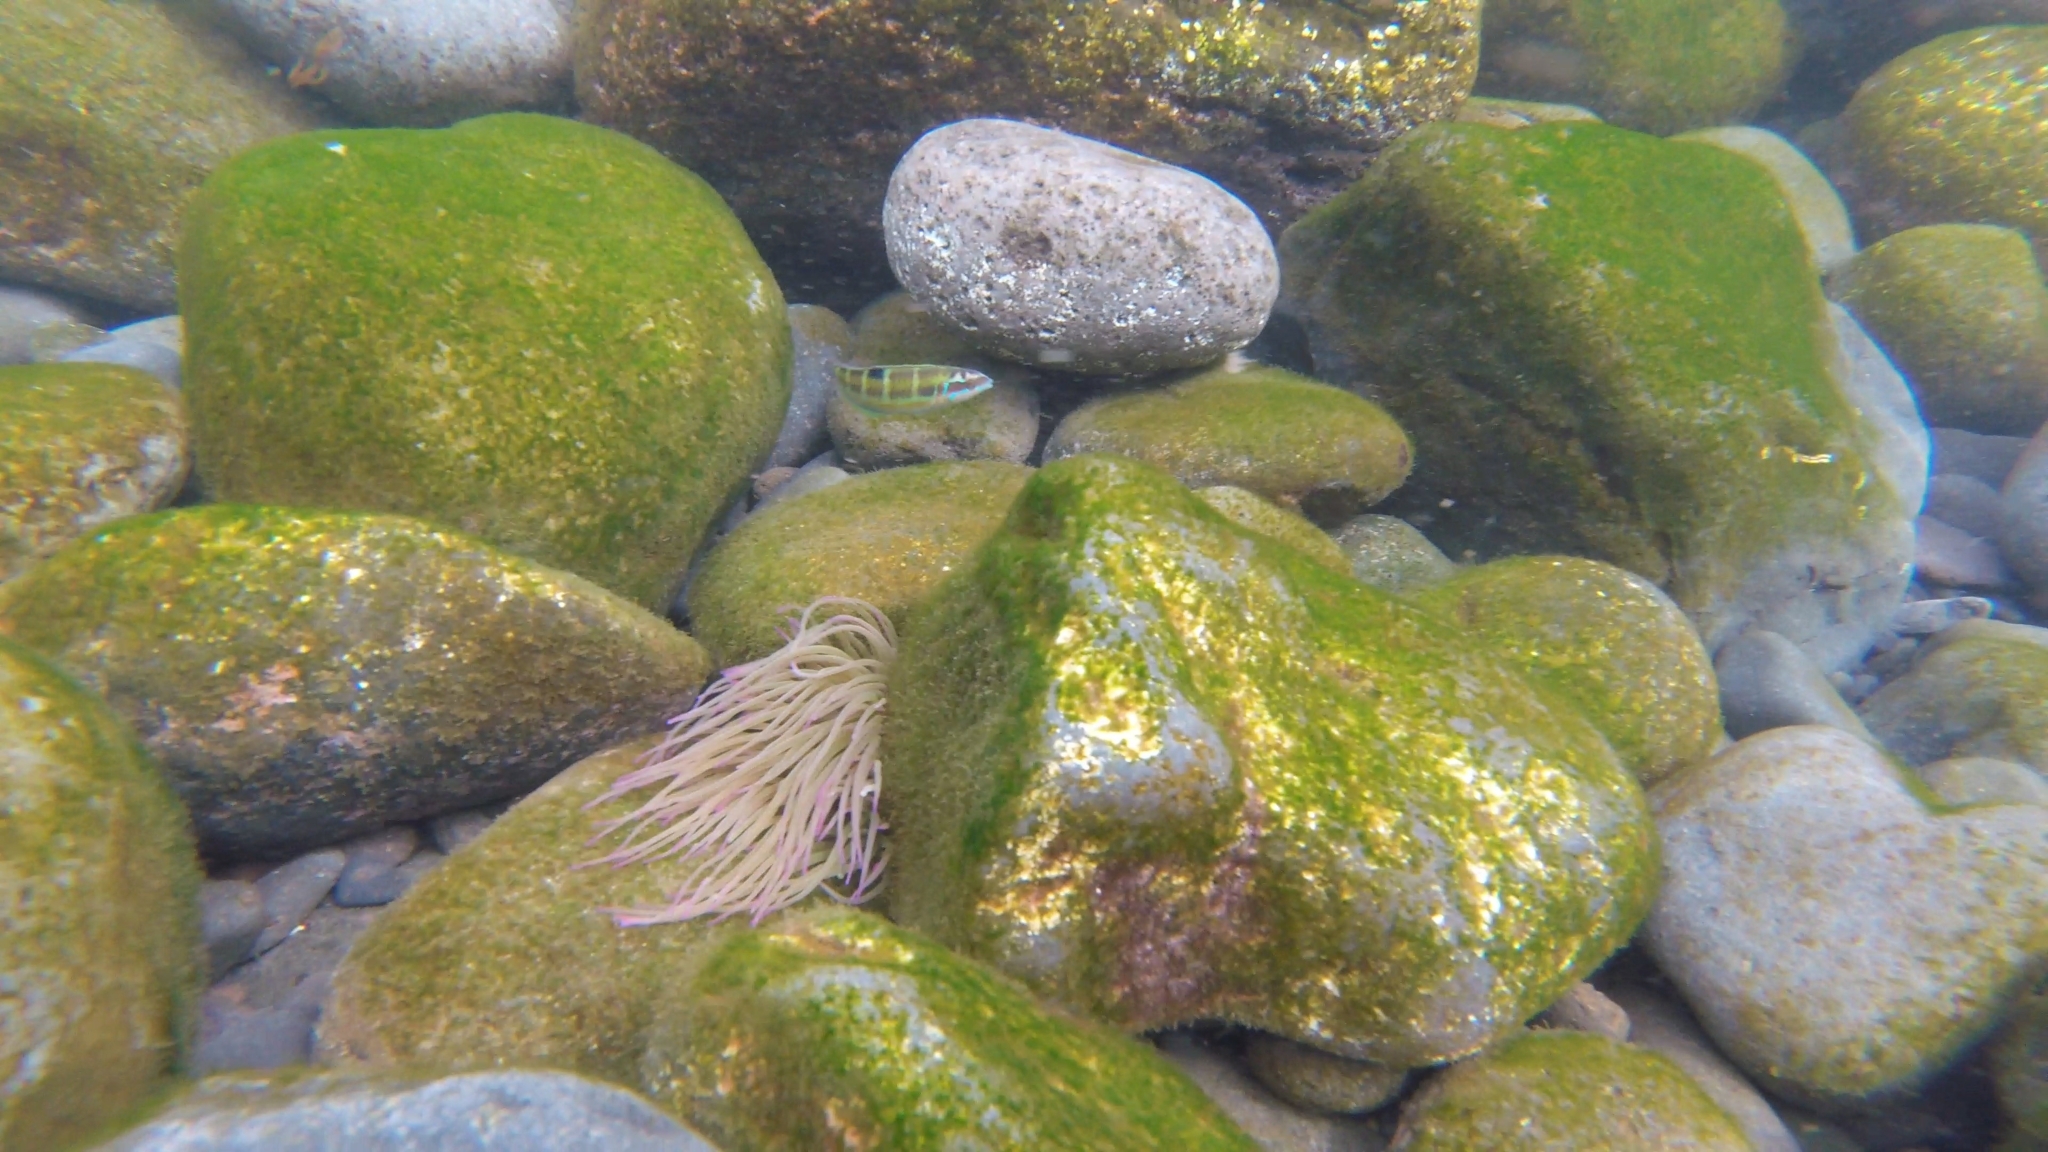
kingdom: Animalia
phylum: Chordata
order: Perciformes
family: Labridae
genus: Thalassoma
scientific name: Thalassoma pavo
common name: Ornate wrasse
